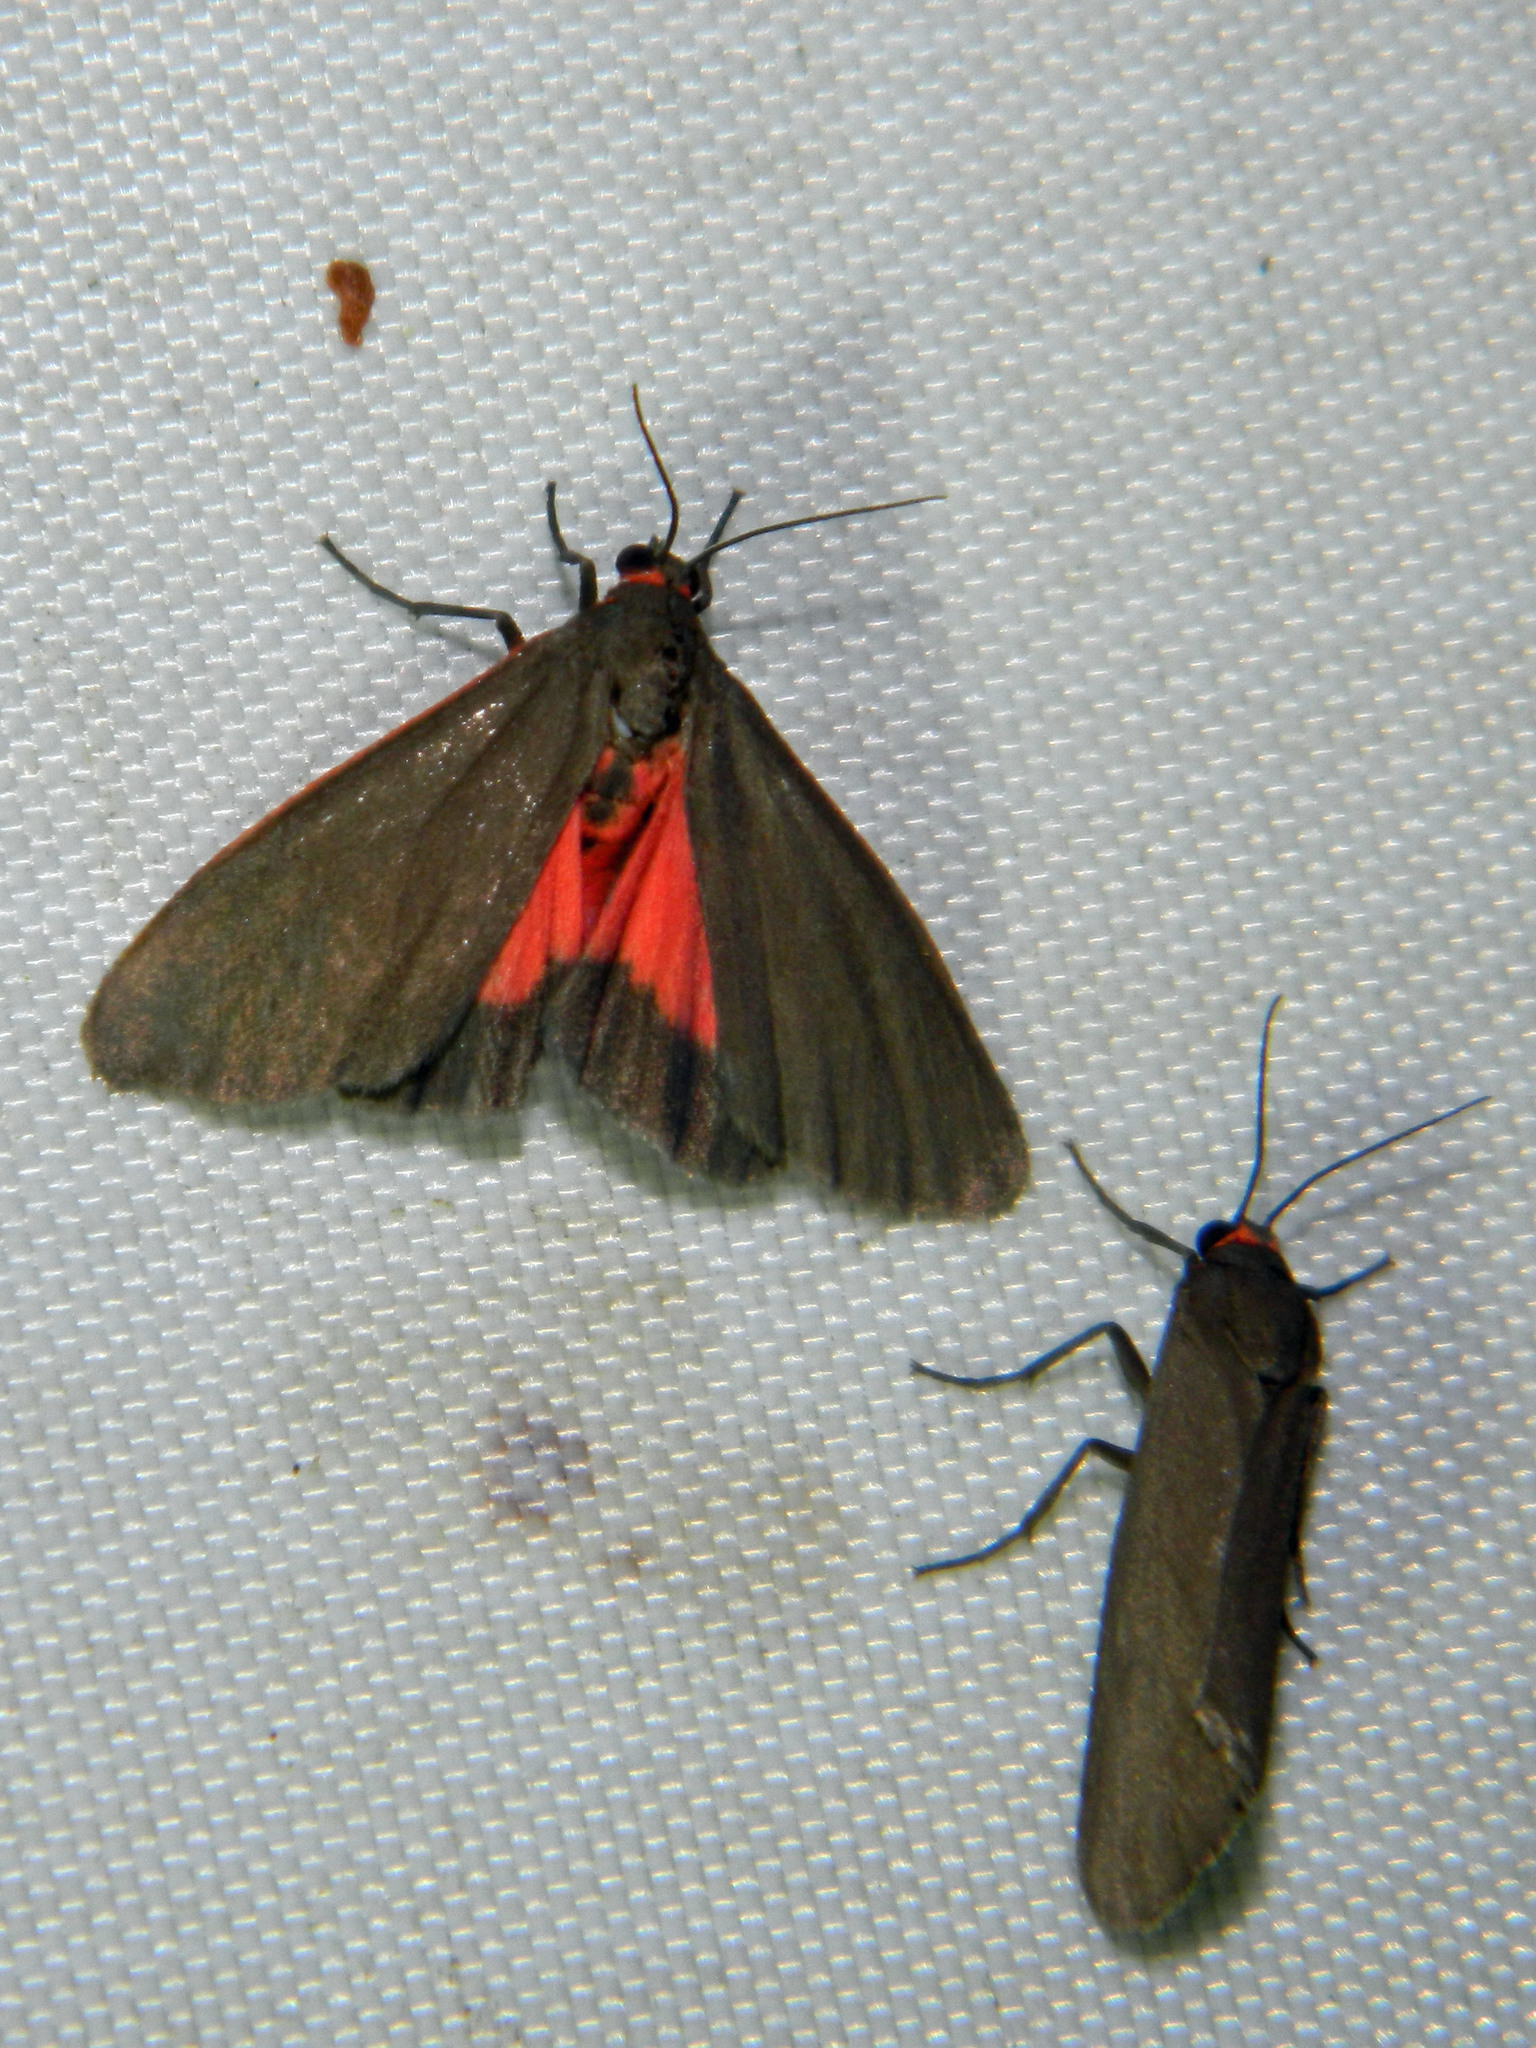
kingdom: Animalia
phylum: Arthropoda
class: Insecta
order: Lepidoptera
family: Erebidae
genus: Virbia
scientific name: Virbia laeta
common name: Joyful holomelina moth
